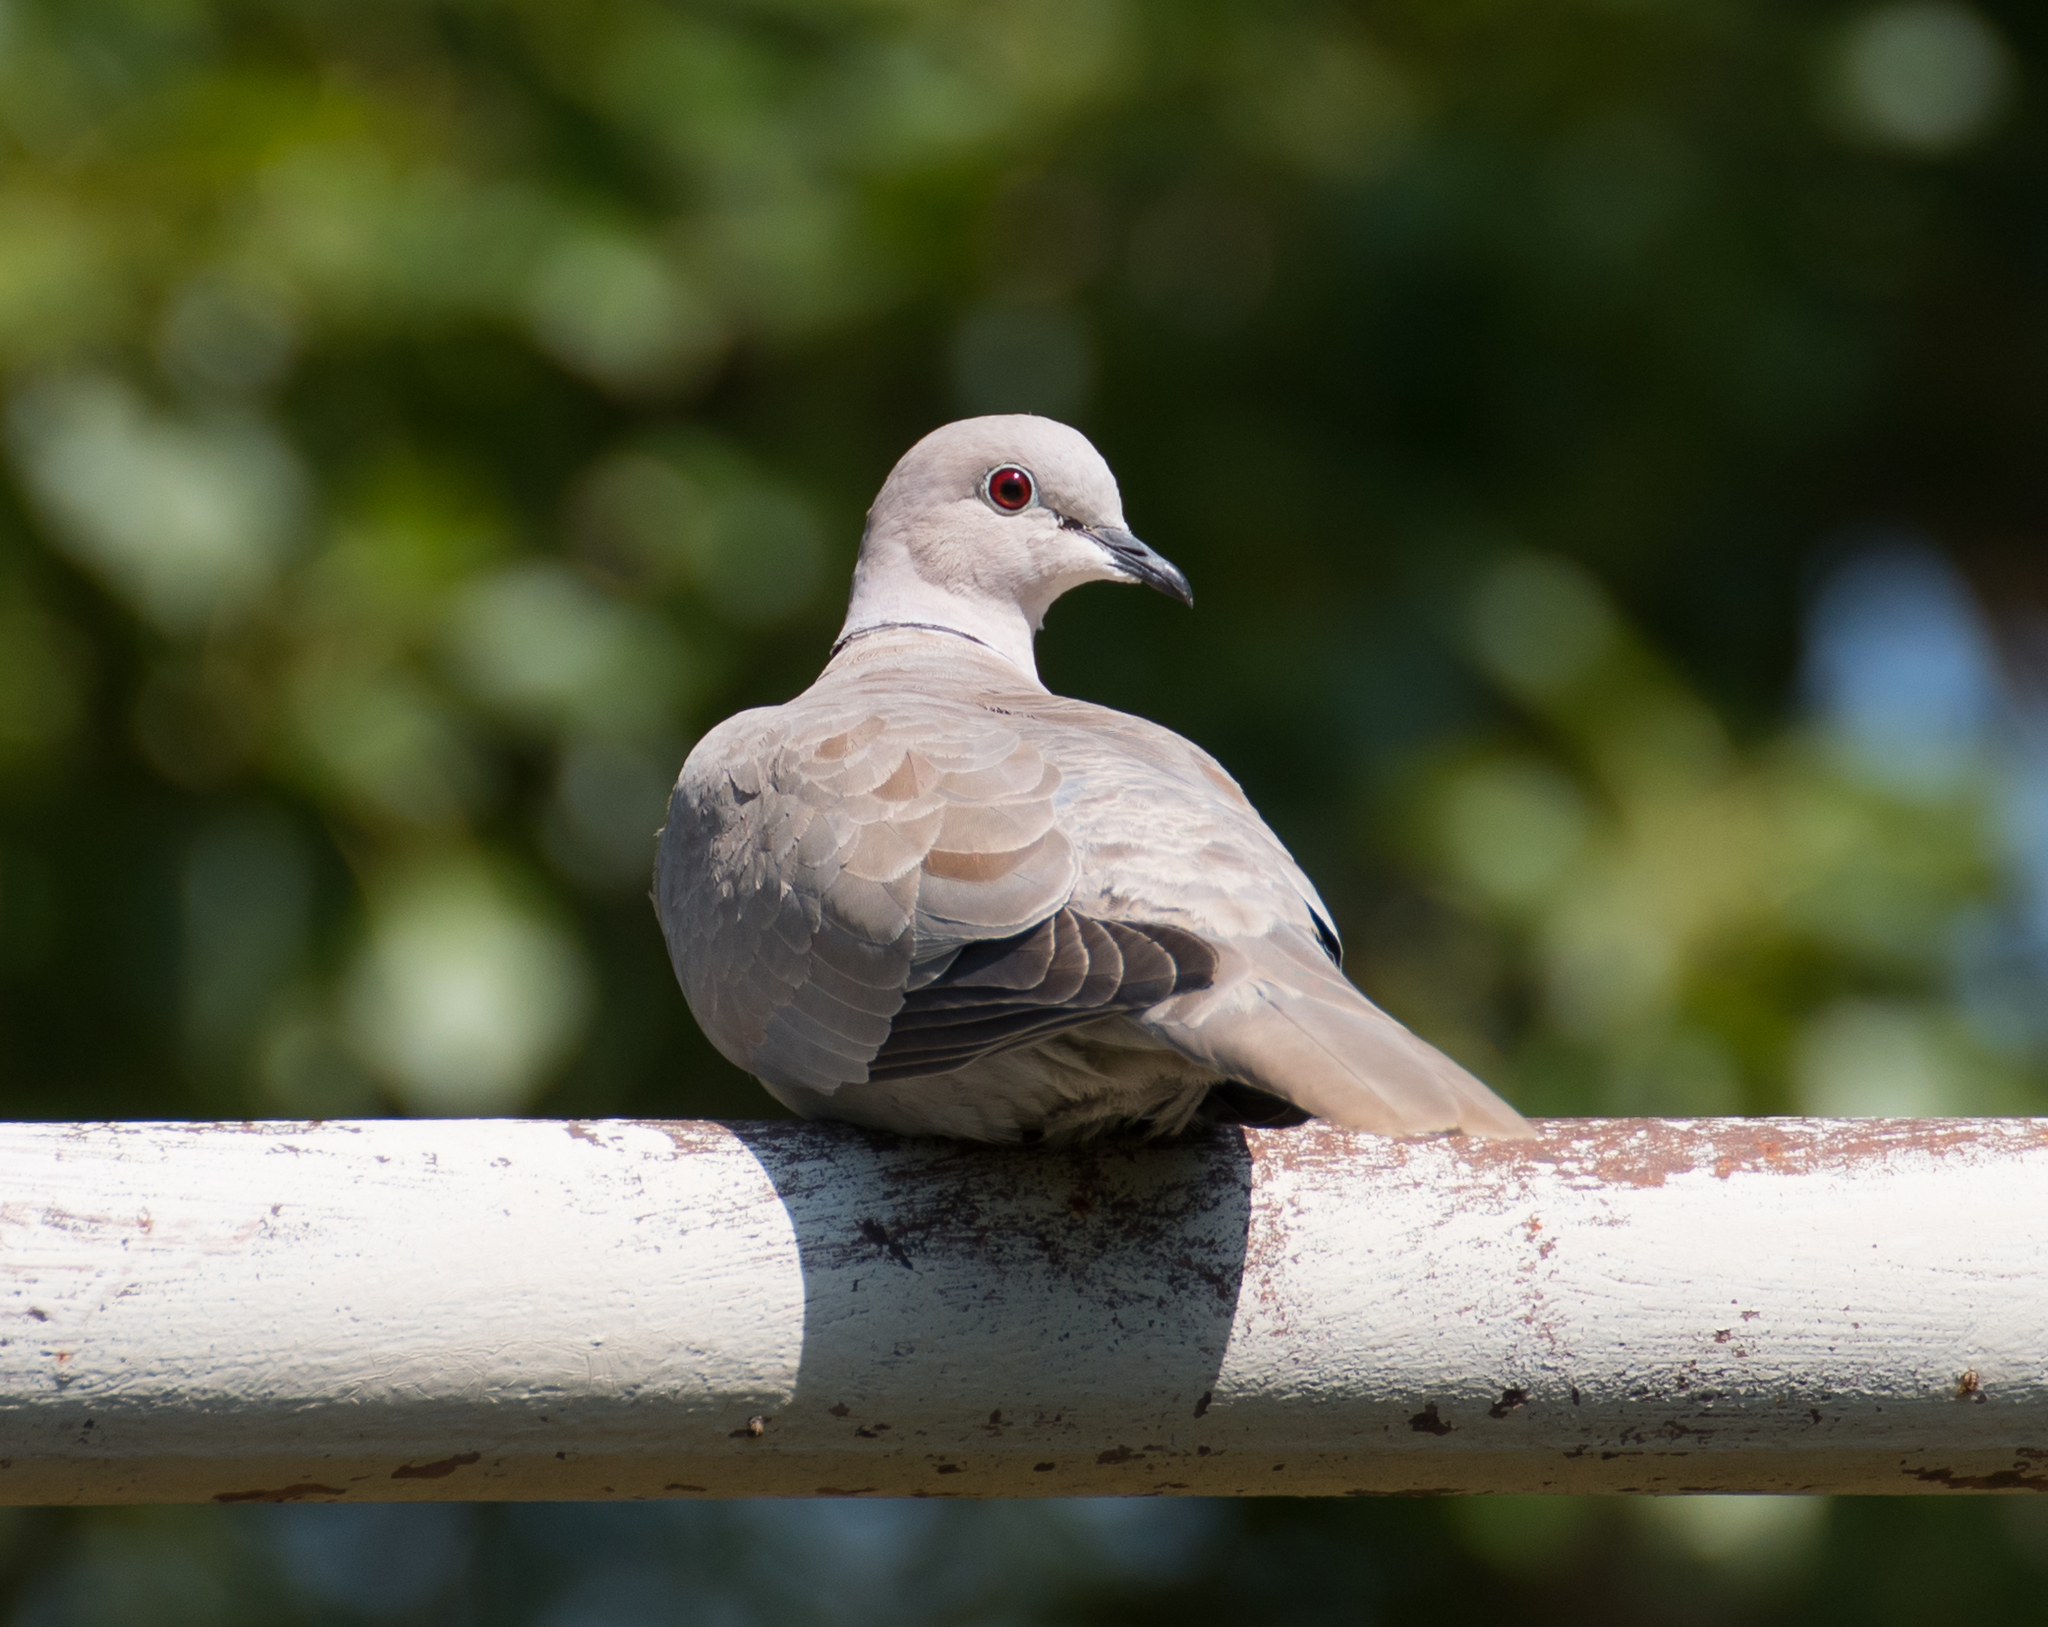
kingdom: Animalia
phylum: Chordata
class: Aves
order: Columbiformes
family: Columbidae
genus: Streptopelia
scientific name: Streptopelia decaocto
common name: Eurasian collared dove
